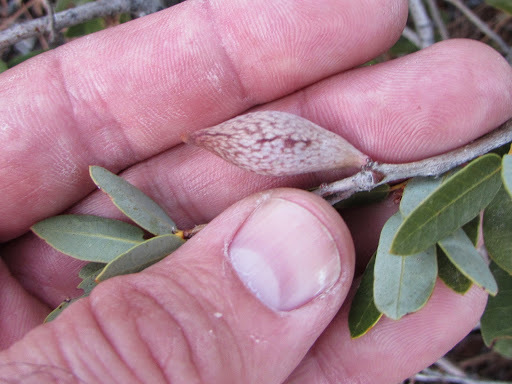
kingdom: Animalia
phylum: Arthropoda
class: Insecta
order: Hymenoptera
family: Cynipidae
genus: Heteroecus
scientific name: Heteroecus pacificus
